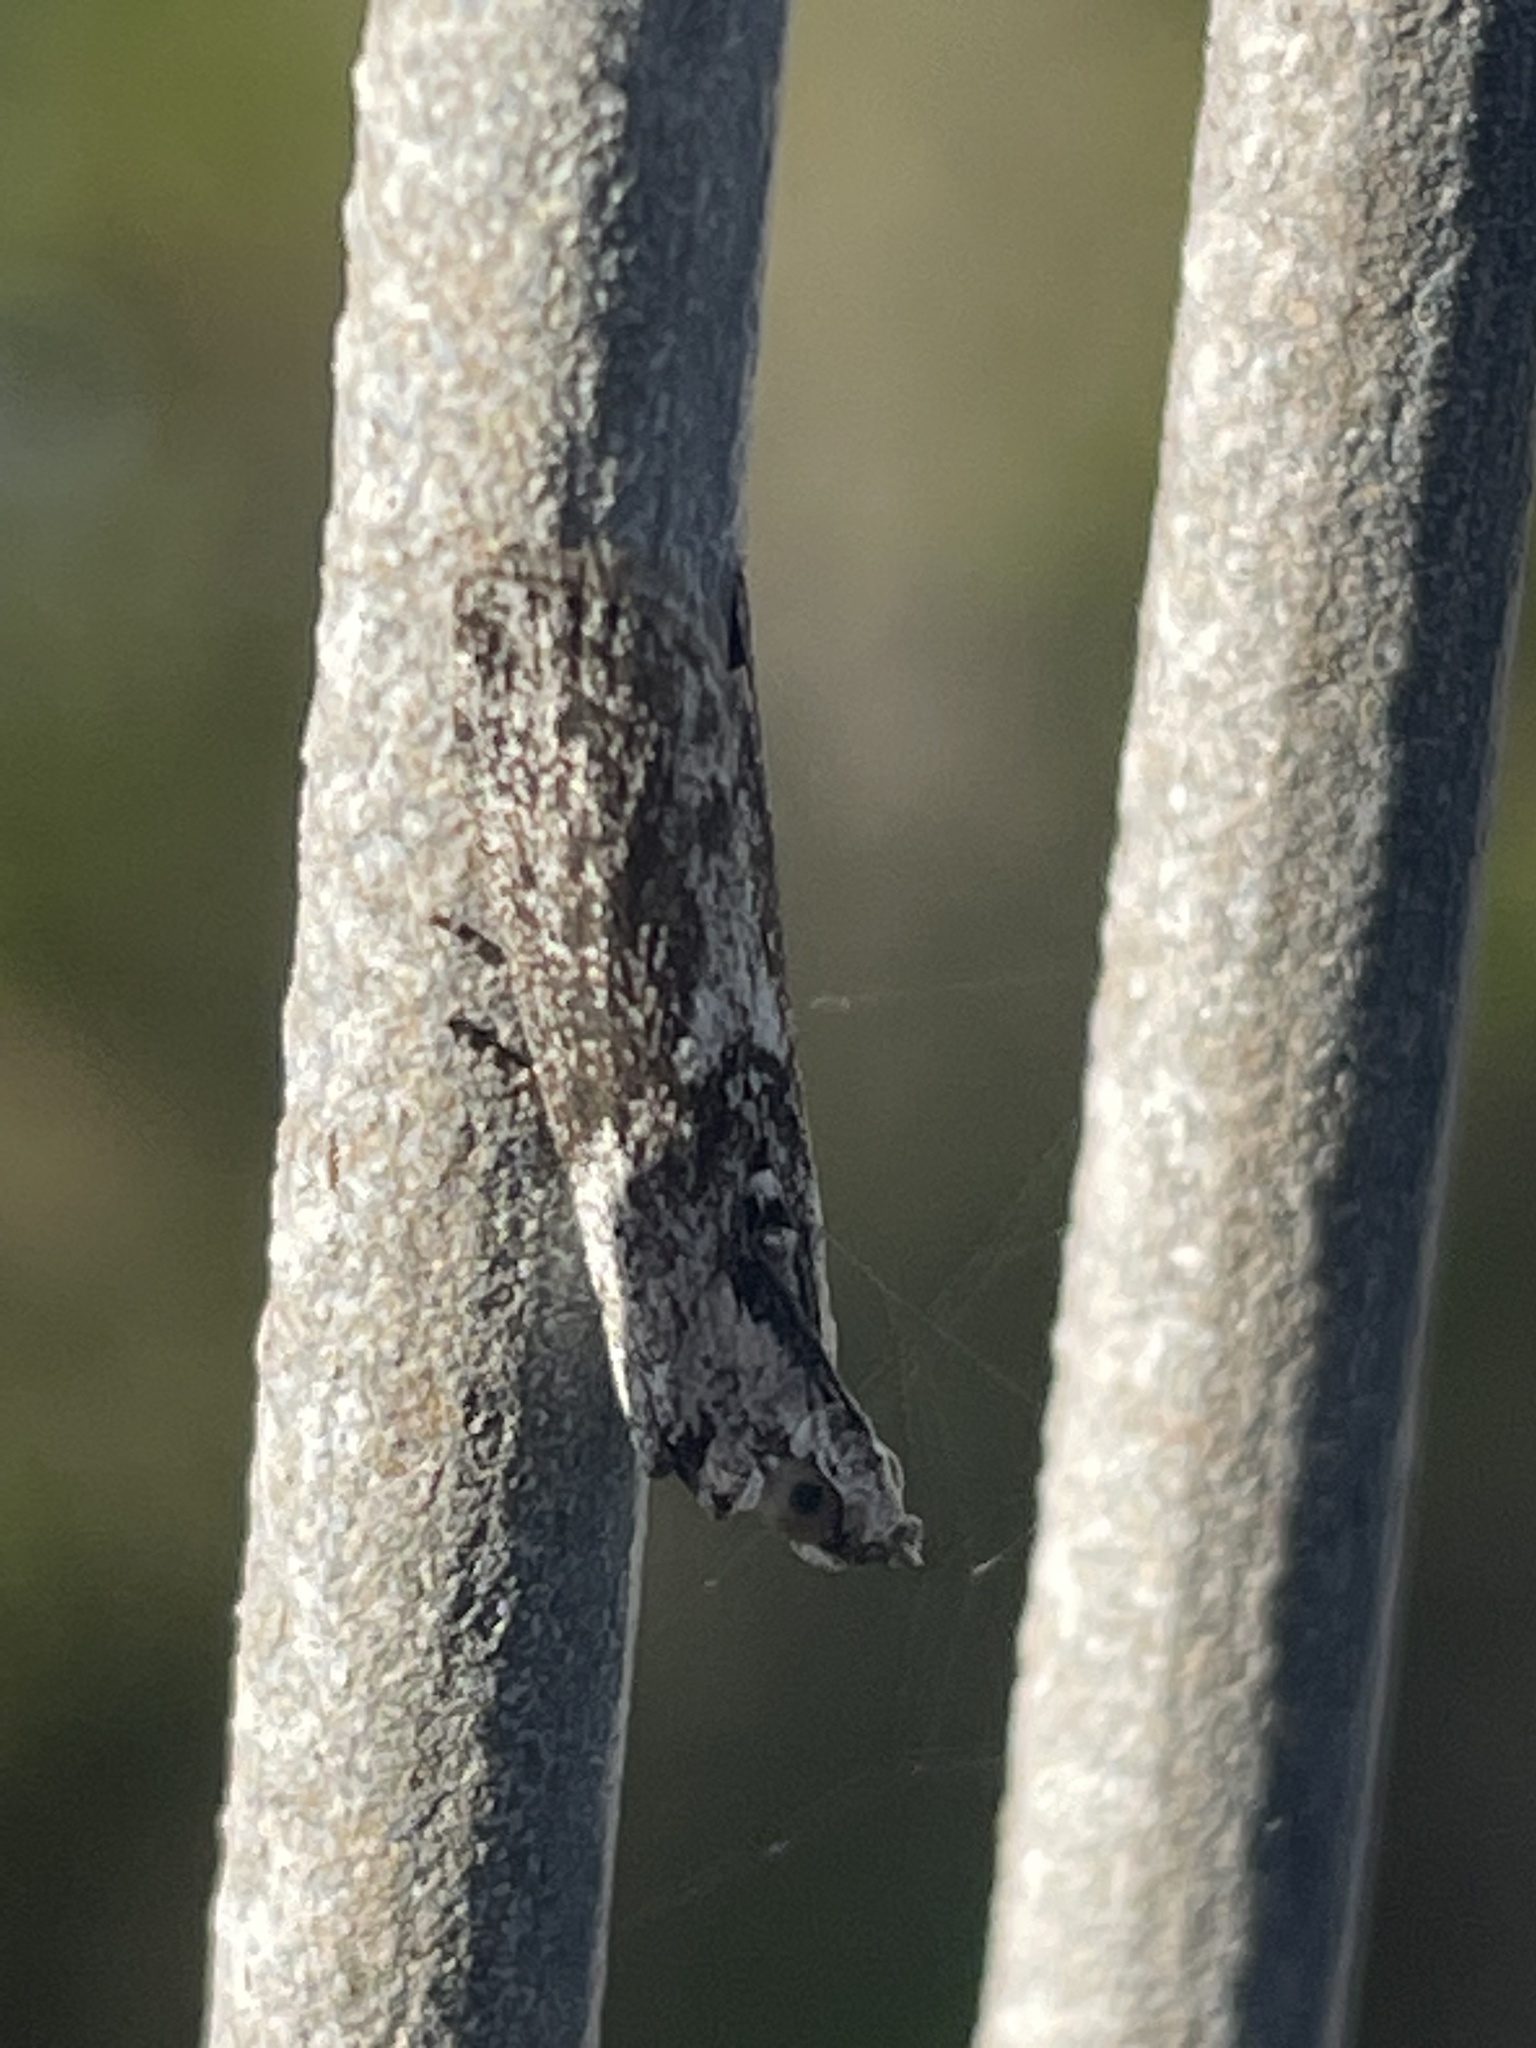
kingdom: Animalia
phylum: Arthropoda
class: Insecta
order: Lepidoptera
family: Pyralidae
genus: Sciota
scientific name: Sciota
